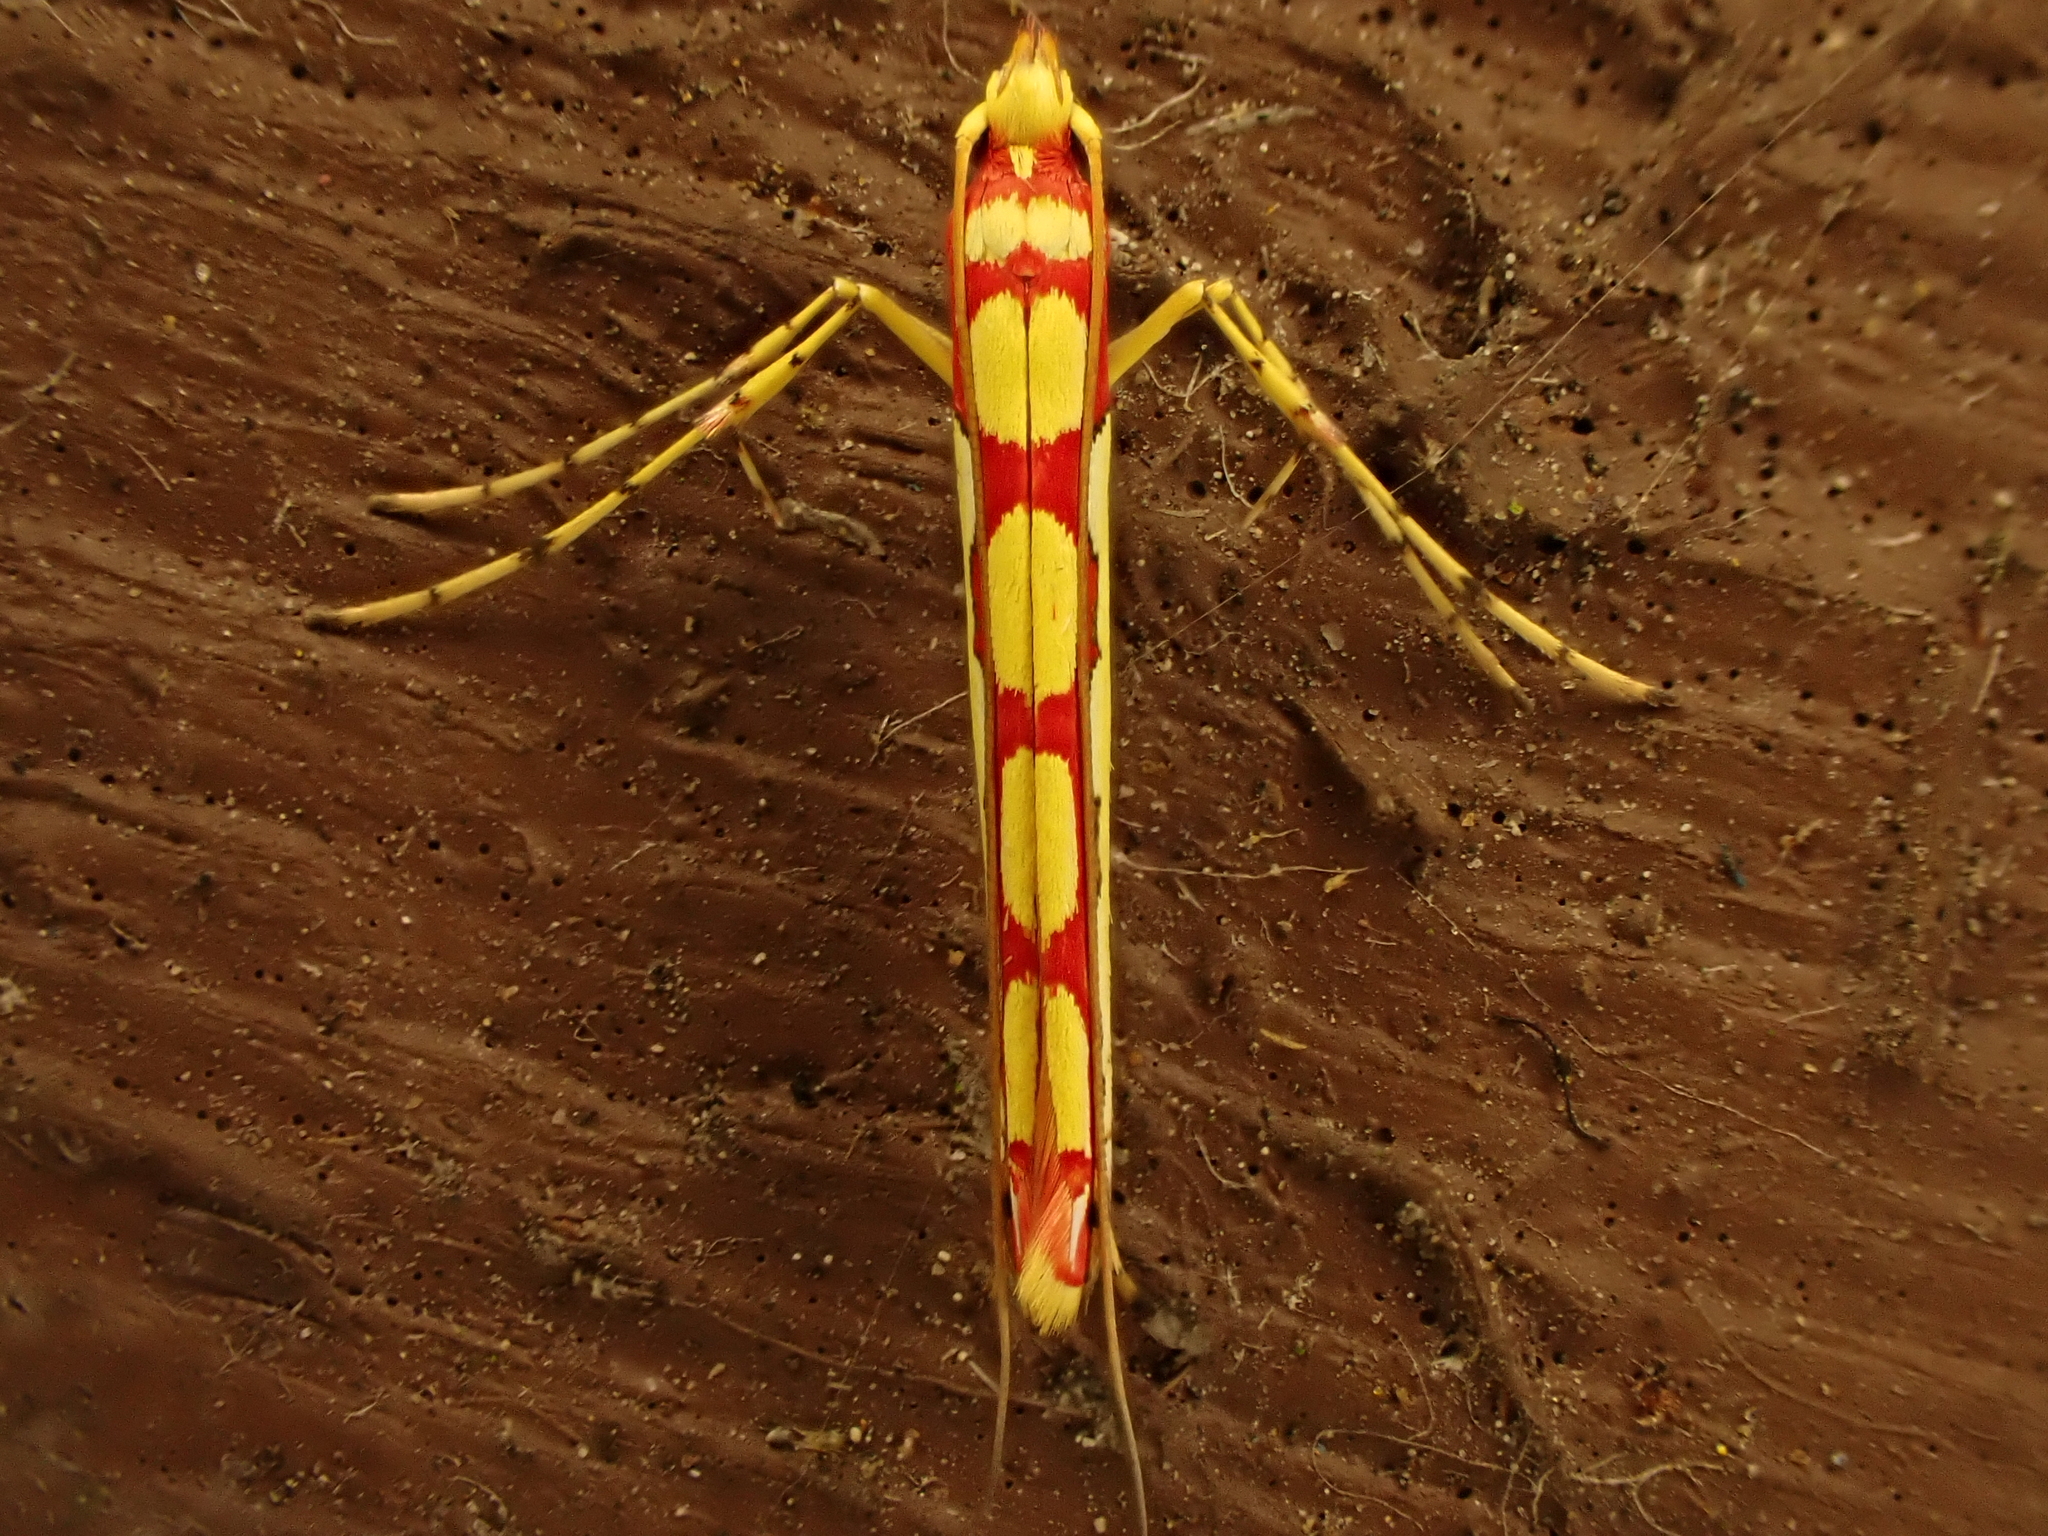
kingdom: Animalia
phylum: Arthropoda
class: Insecta
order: Lepidoptera
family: Gracillariidae
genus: Macarostola
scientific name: Macarostola miniella
